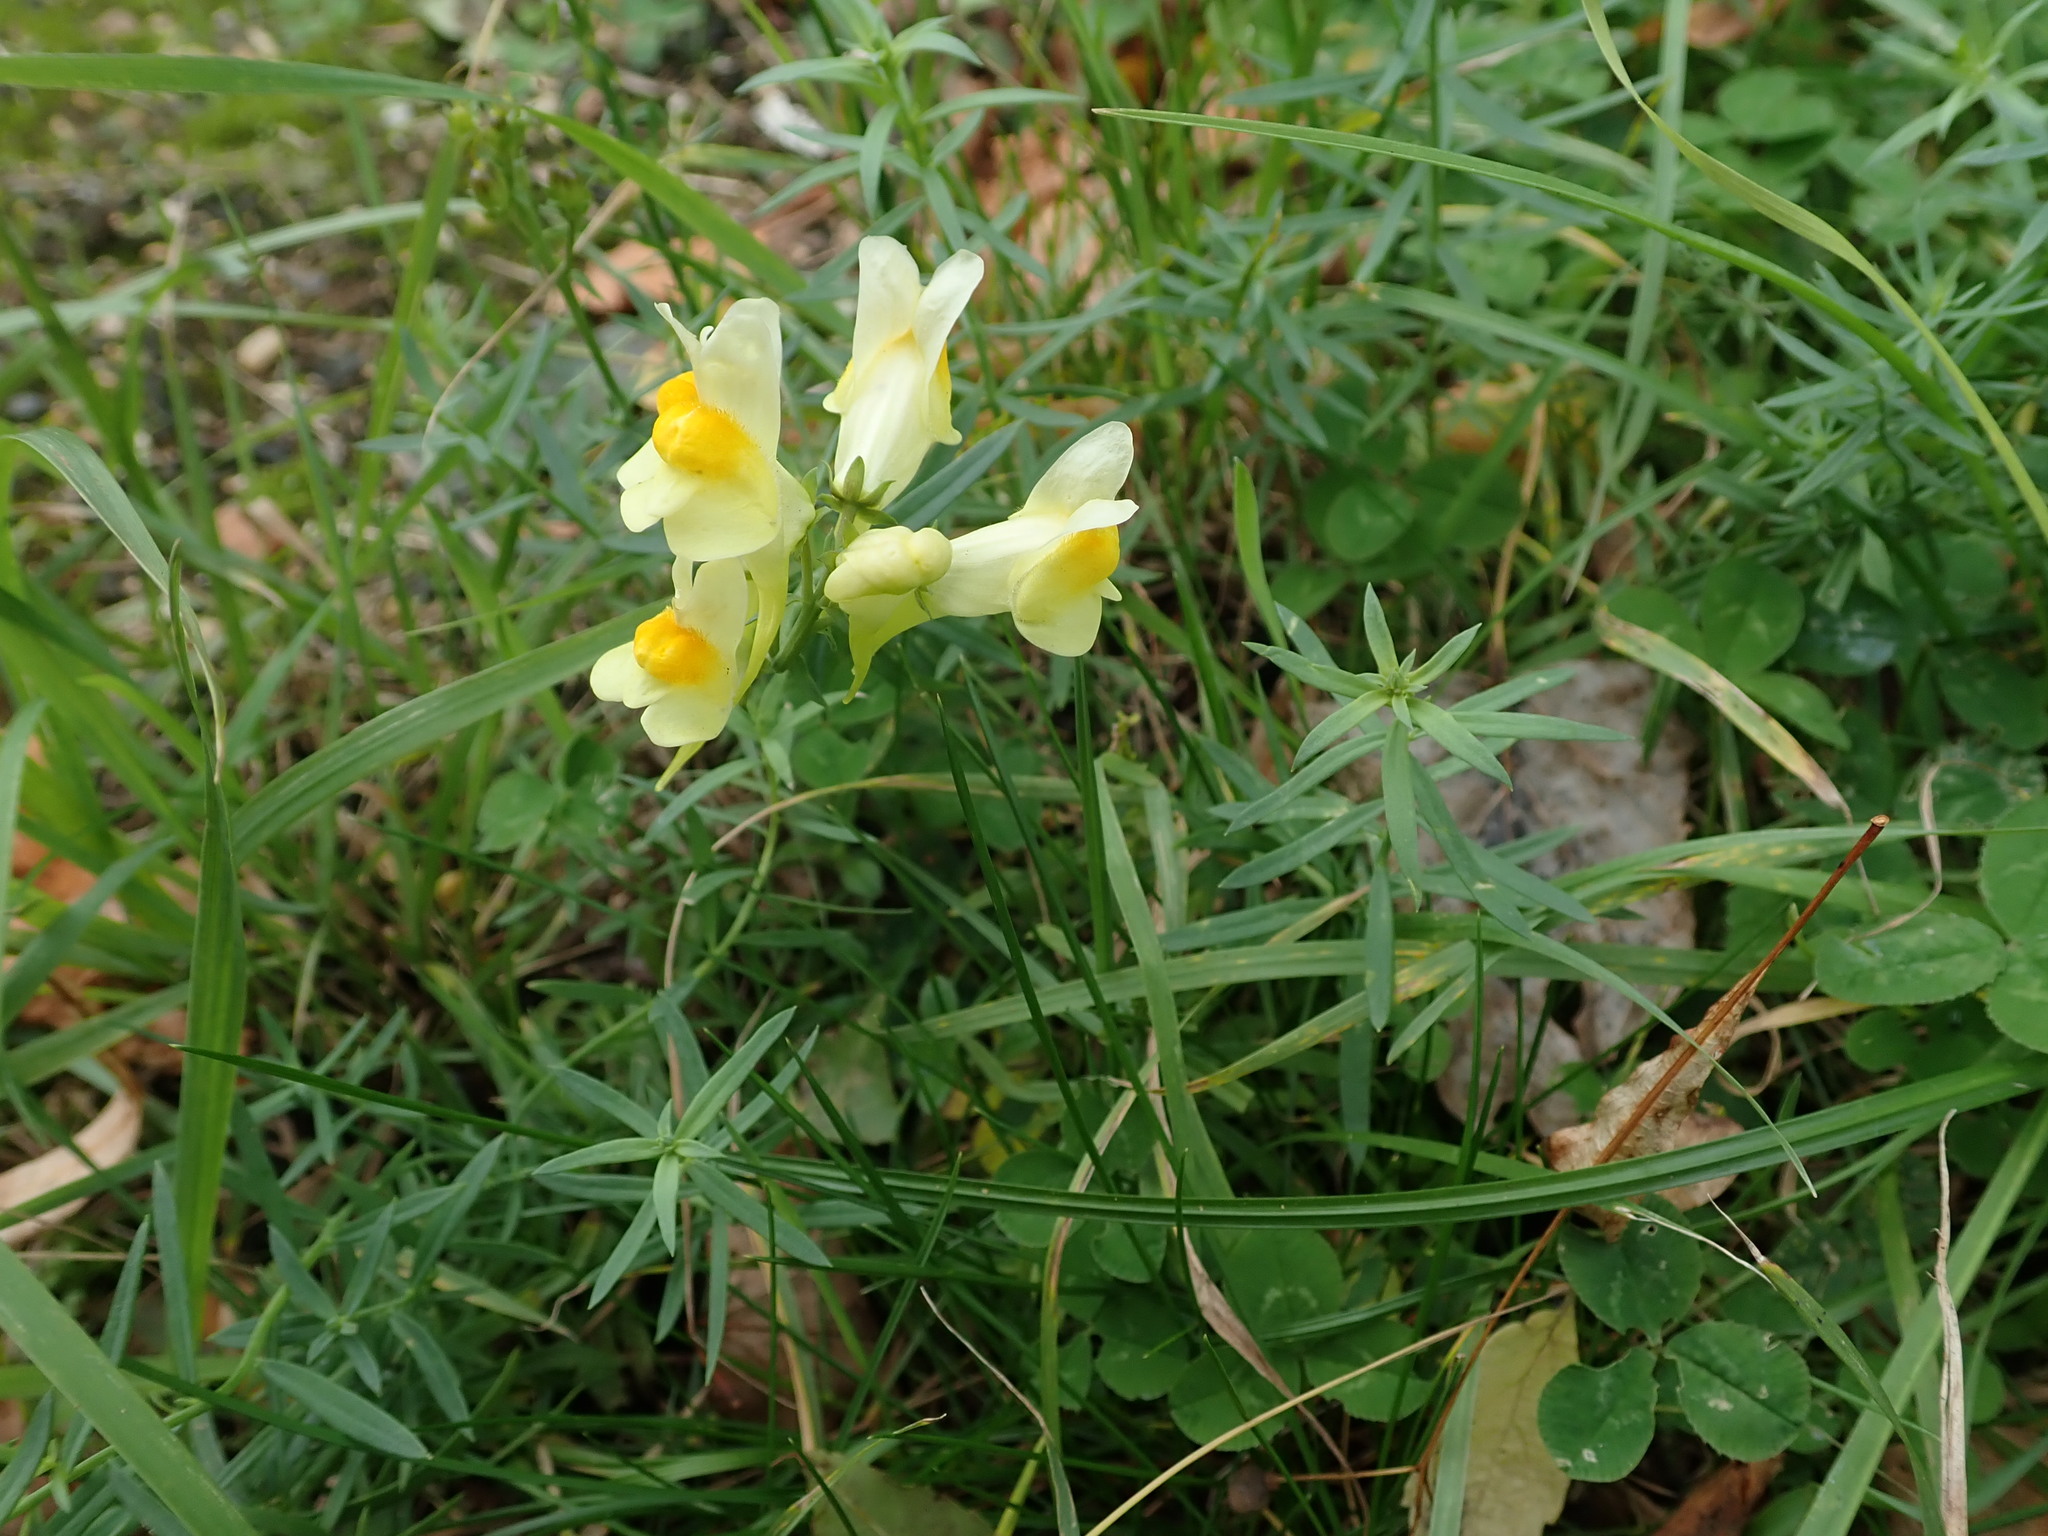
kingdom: Plantae
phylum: Tracheophyta
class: Magnoliopsida
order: Lamiales
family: Plantaginaceae
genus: Linaria
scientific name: Linaria vulgaris
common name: Butter and eggs
